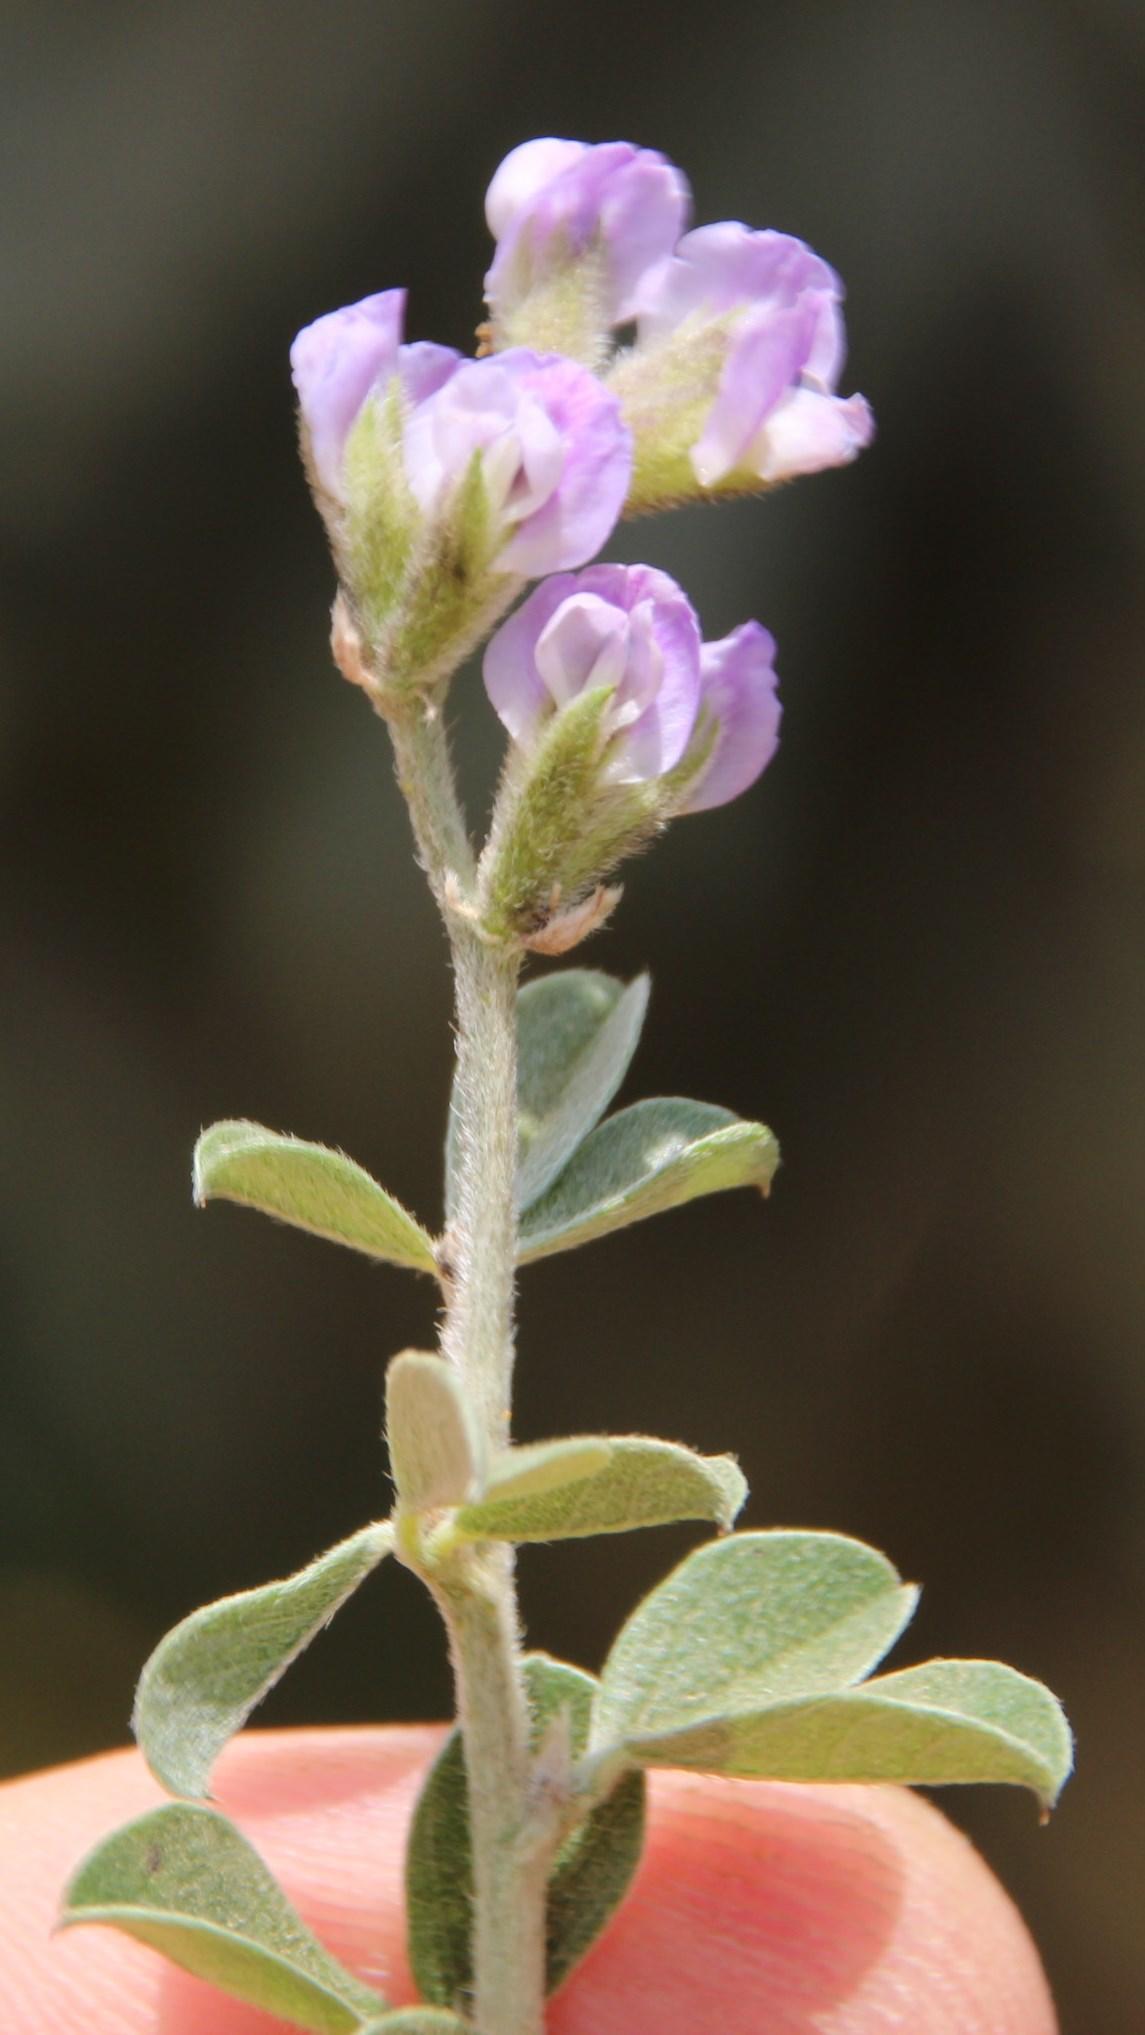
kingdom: Plantae
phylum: Tracheophyta
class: Magnoliopsida
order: Fabales
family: Fabaceae
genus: Psoralea
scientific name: Psoralea hirta
